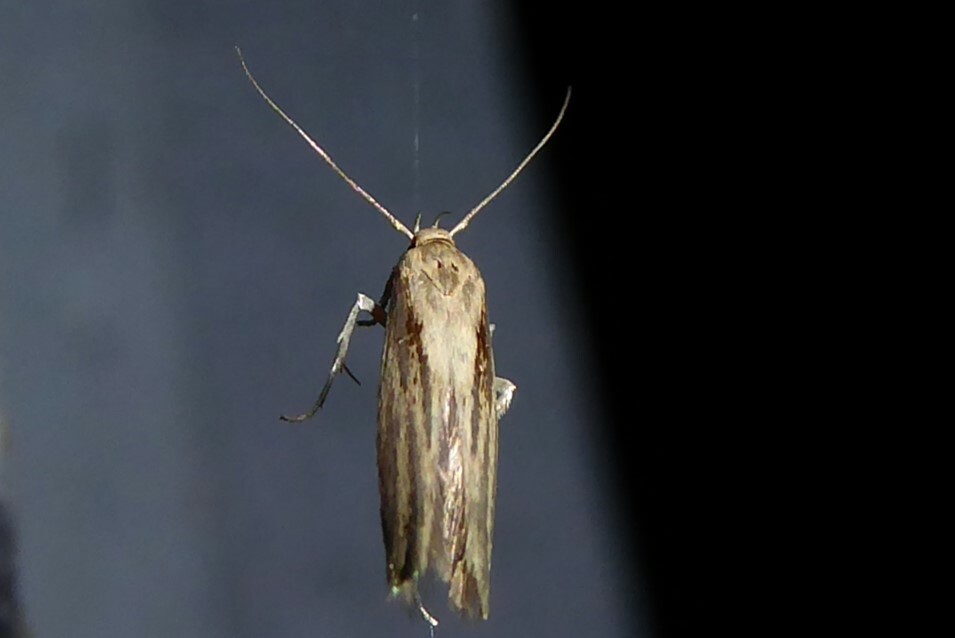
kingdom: Animalia
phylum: Arthropoda
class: Insecta
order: Lepidoptera
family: Stathmopodidae
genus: Stathmopoda
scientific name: Stathmopoda plumbiflua
